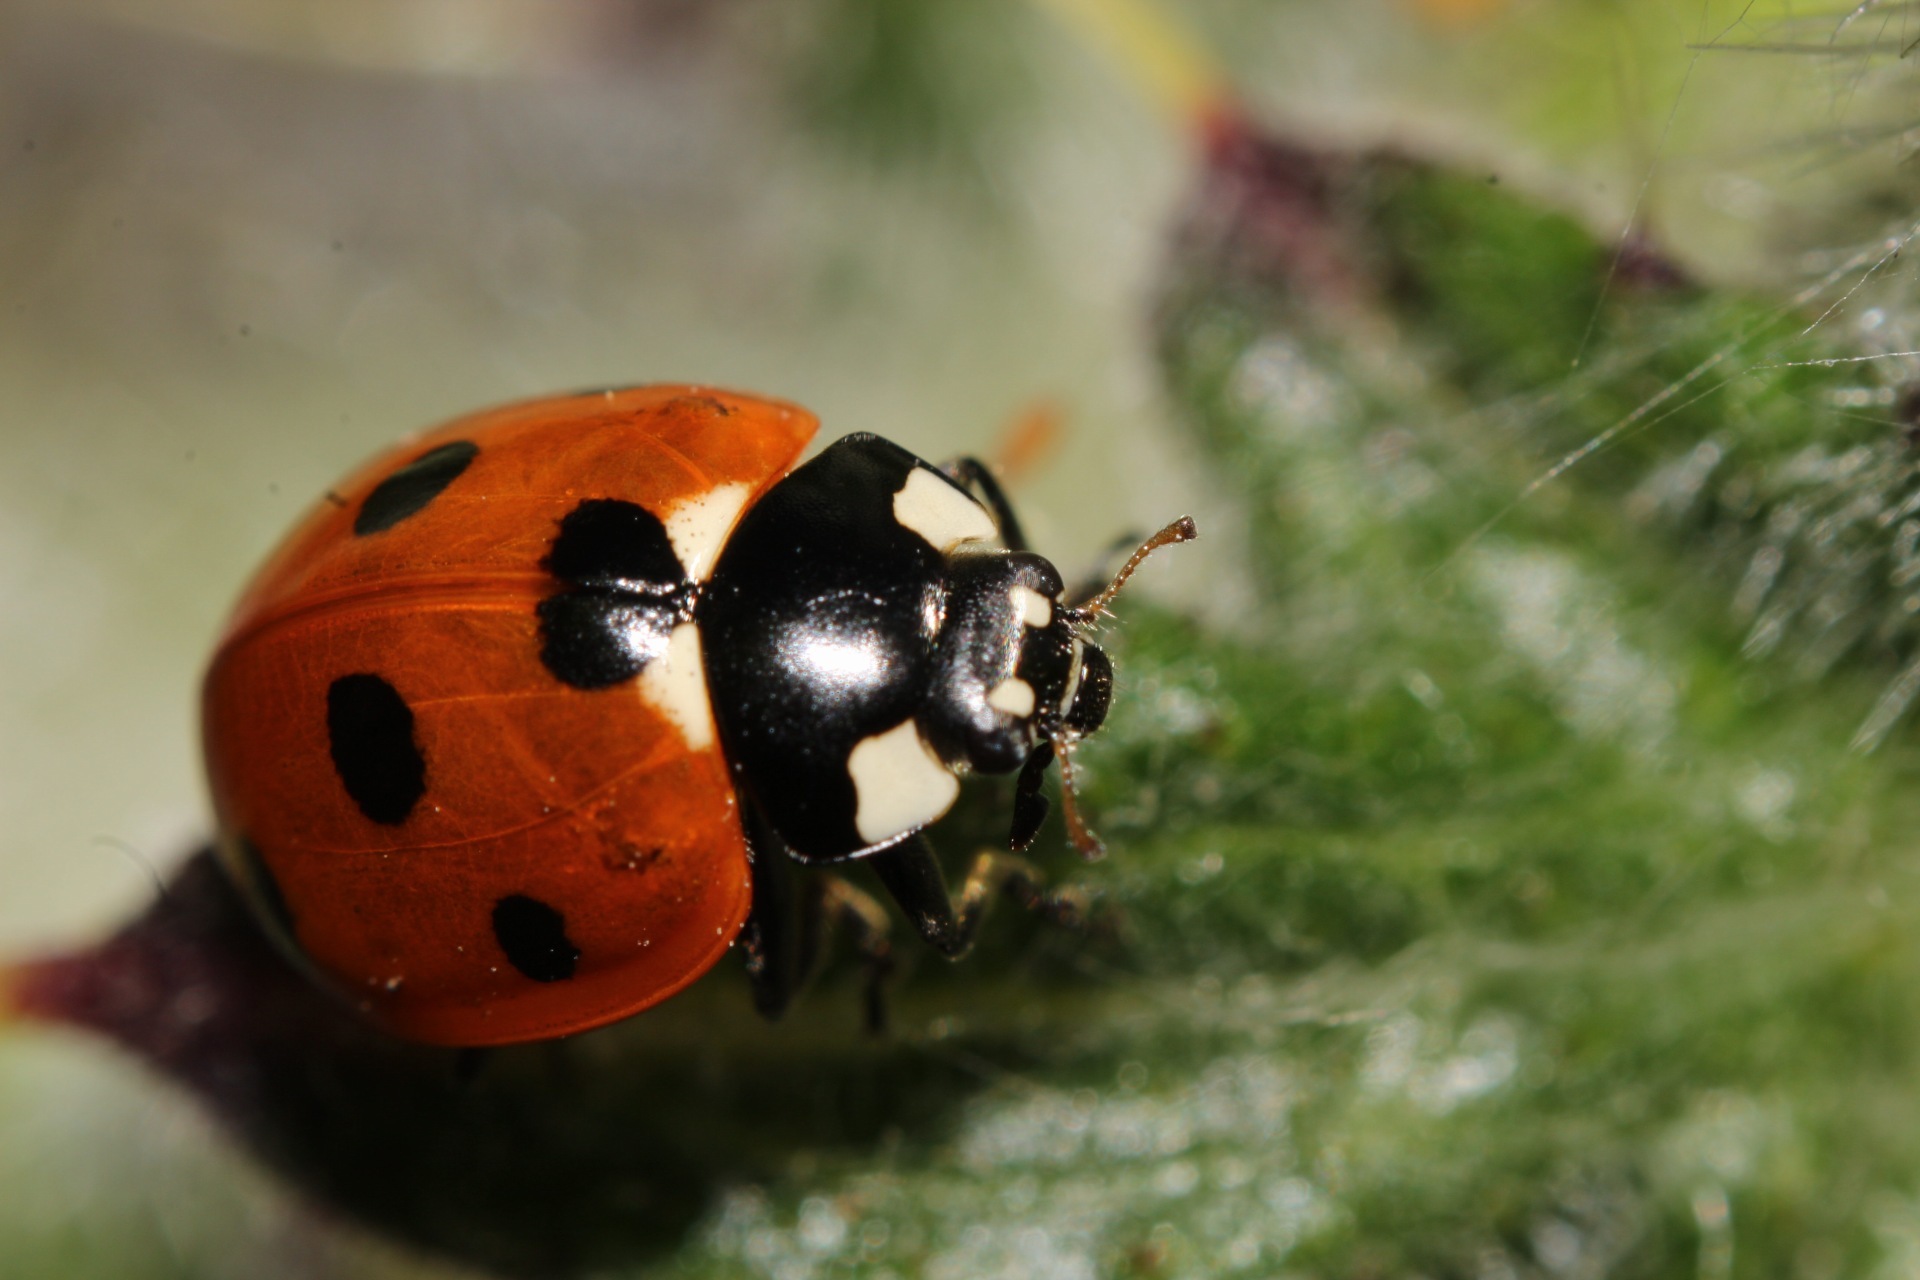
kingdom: Animalia
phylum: Arthropoda
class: Insecta
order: Coleoptera
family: Coccinellidae
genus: Coccinella
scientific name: Coccinella septempunctata
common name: Sevenspotted lady beetle
